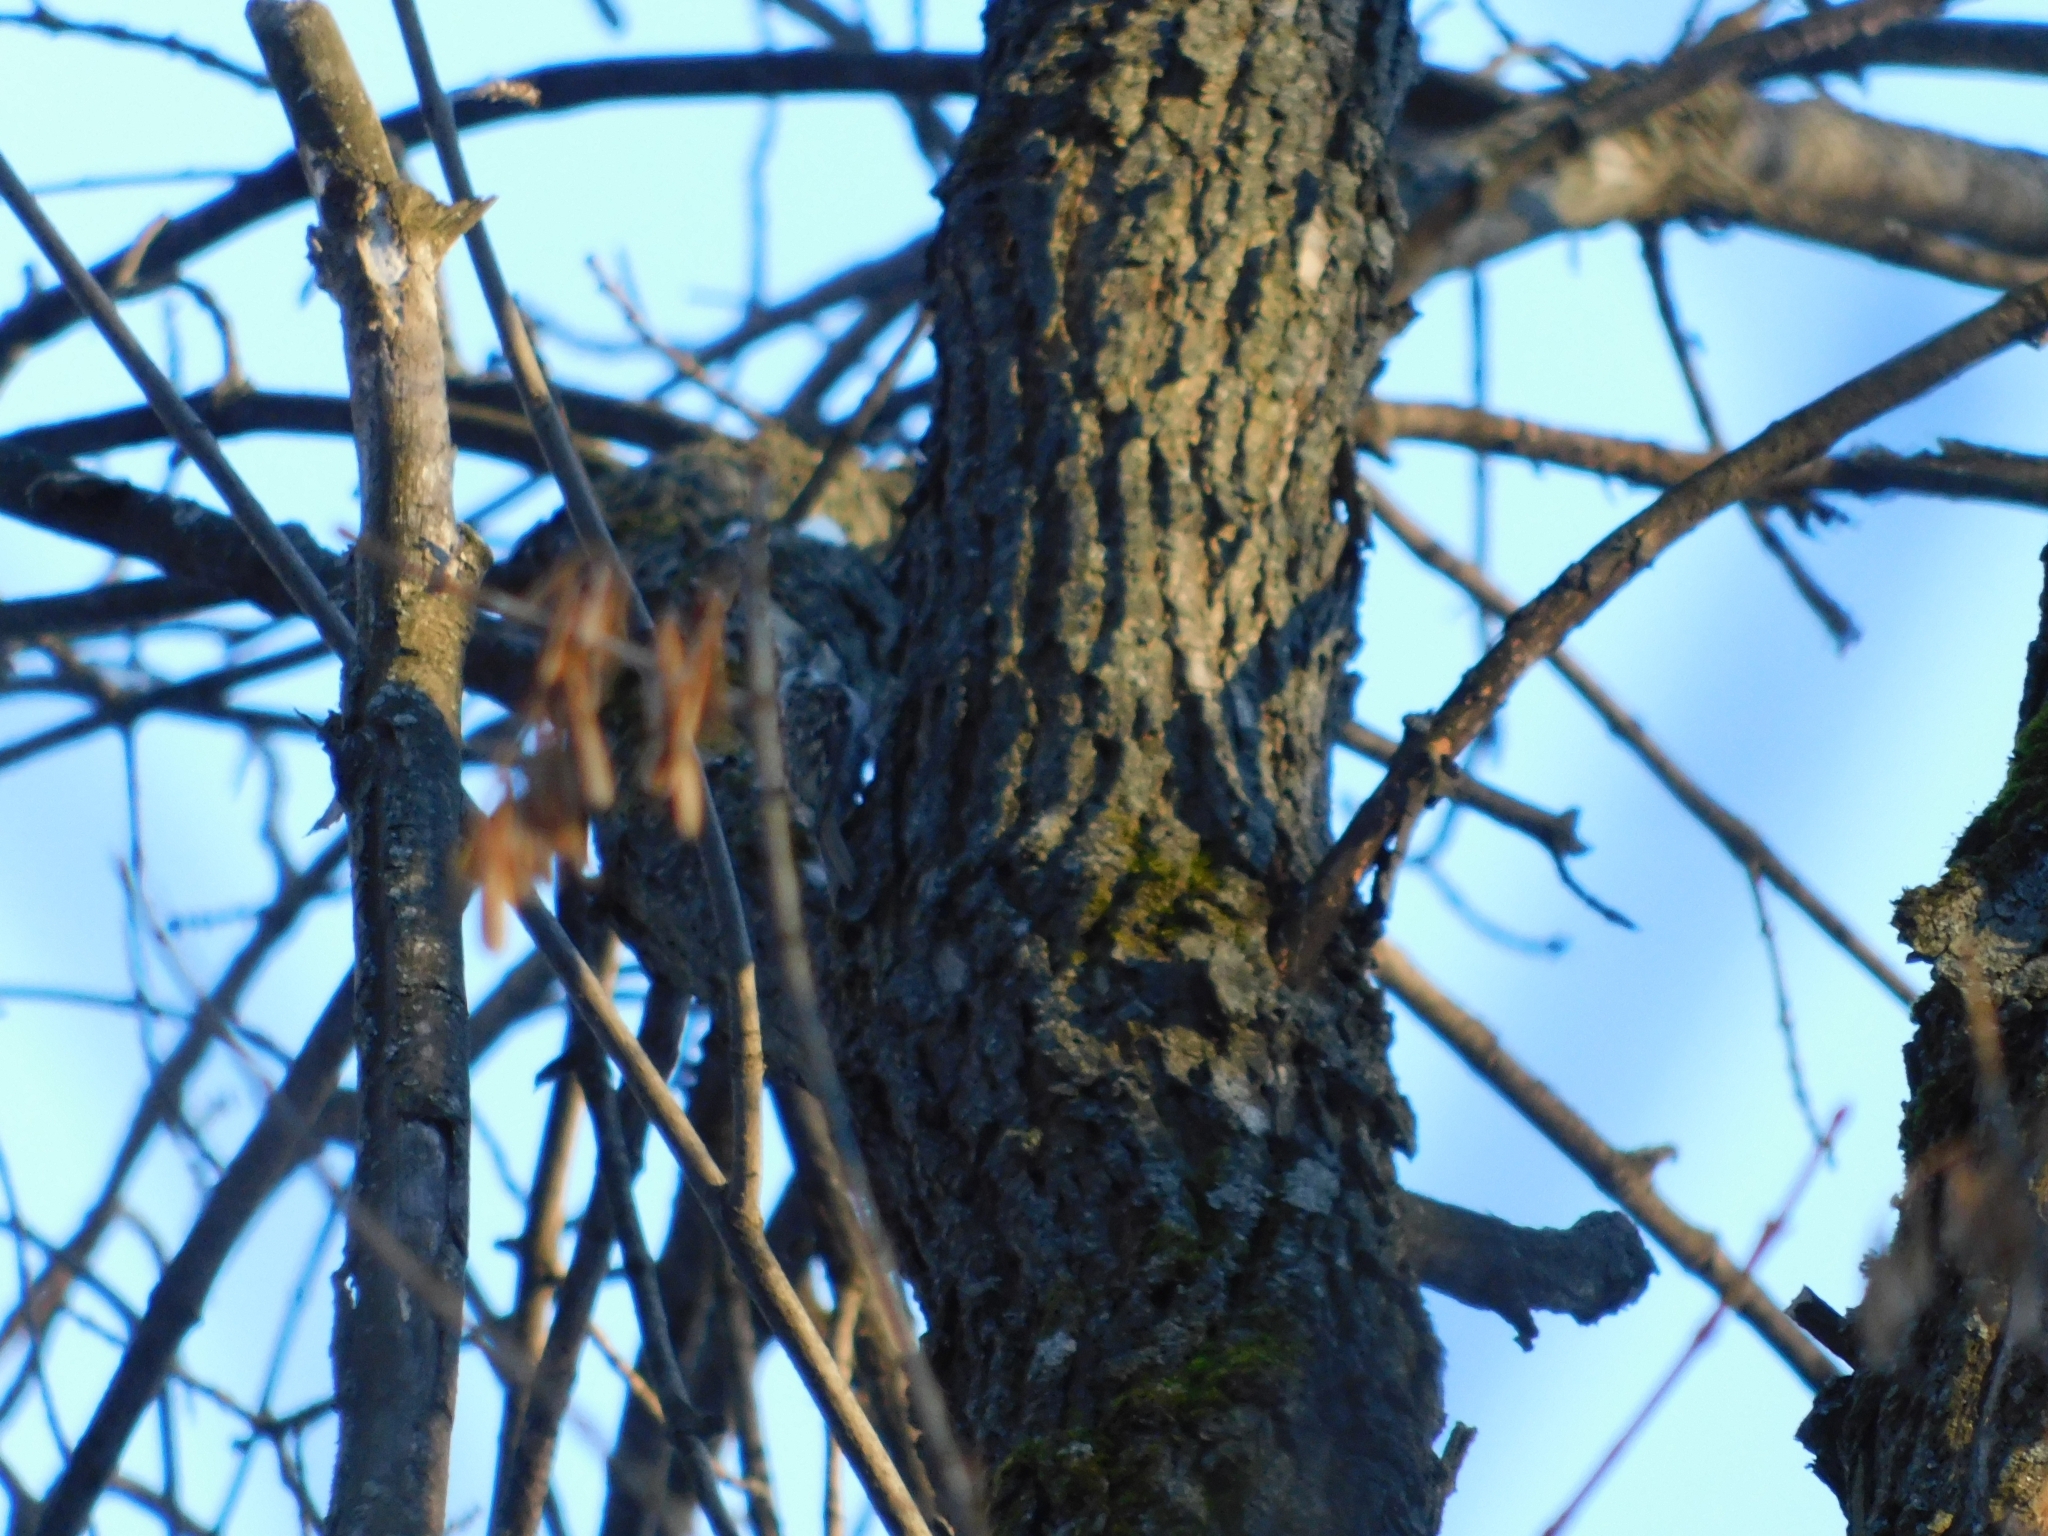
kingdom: Animalia
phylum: Chordata
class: Aves
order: Passeriformes
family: Certhiidae
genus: Certhia
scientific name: Certhia familiaris
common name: Eurasian treecreeper
